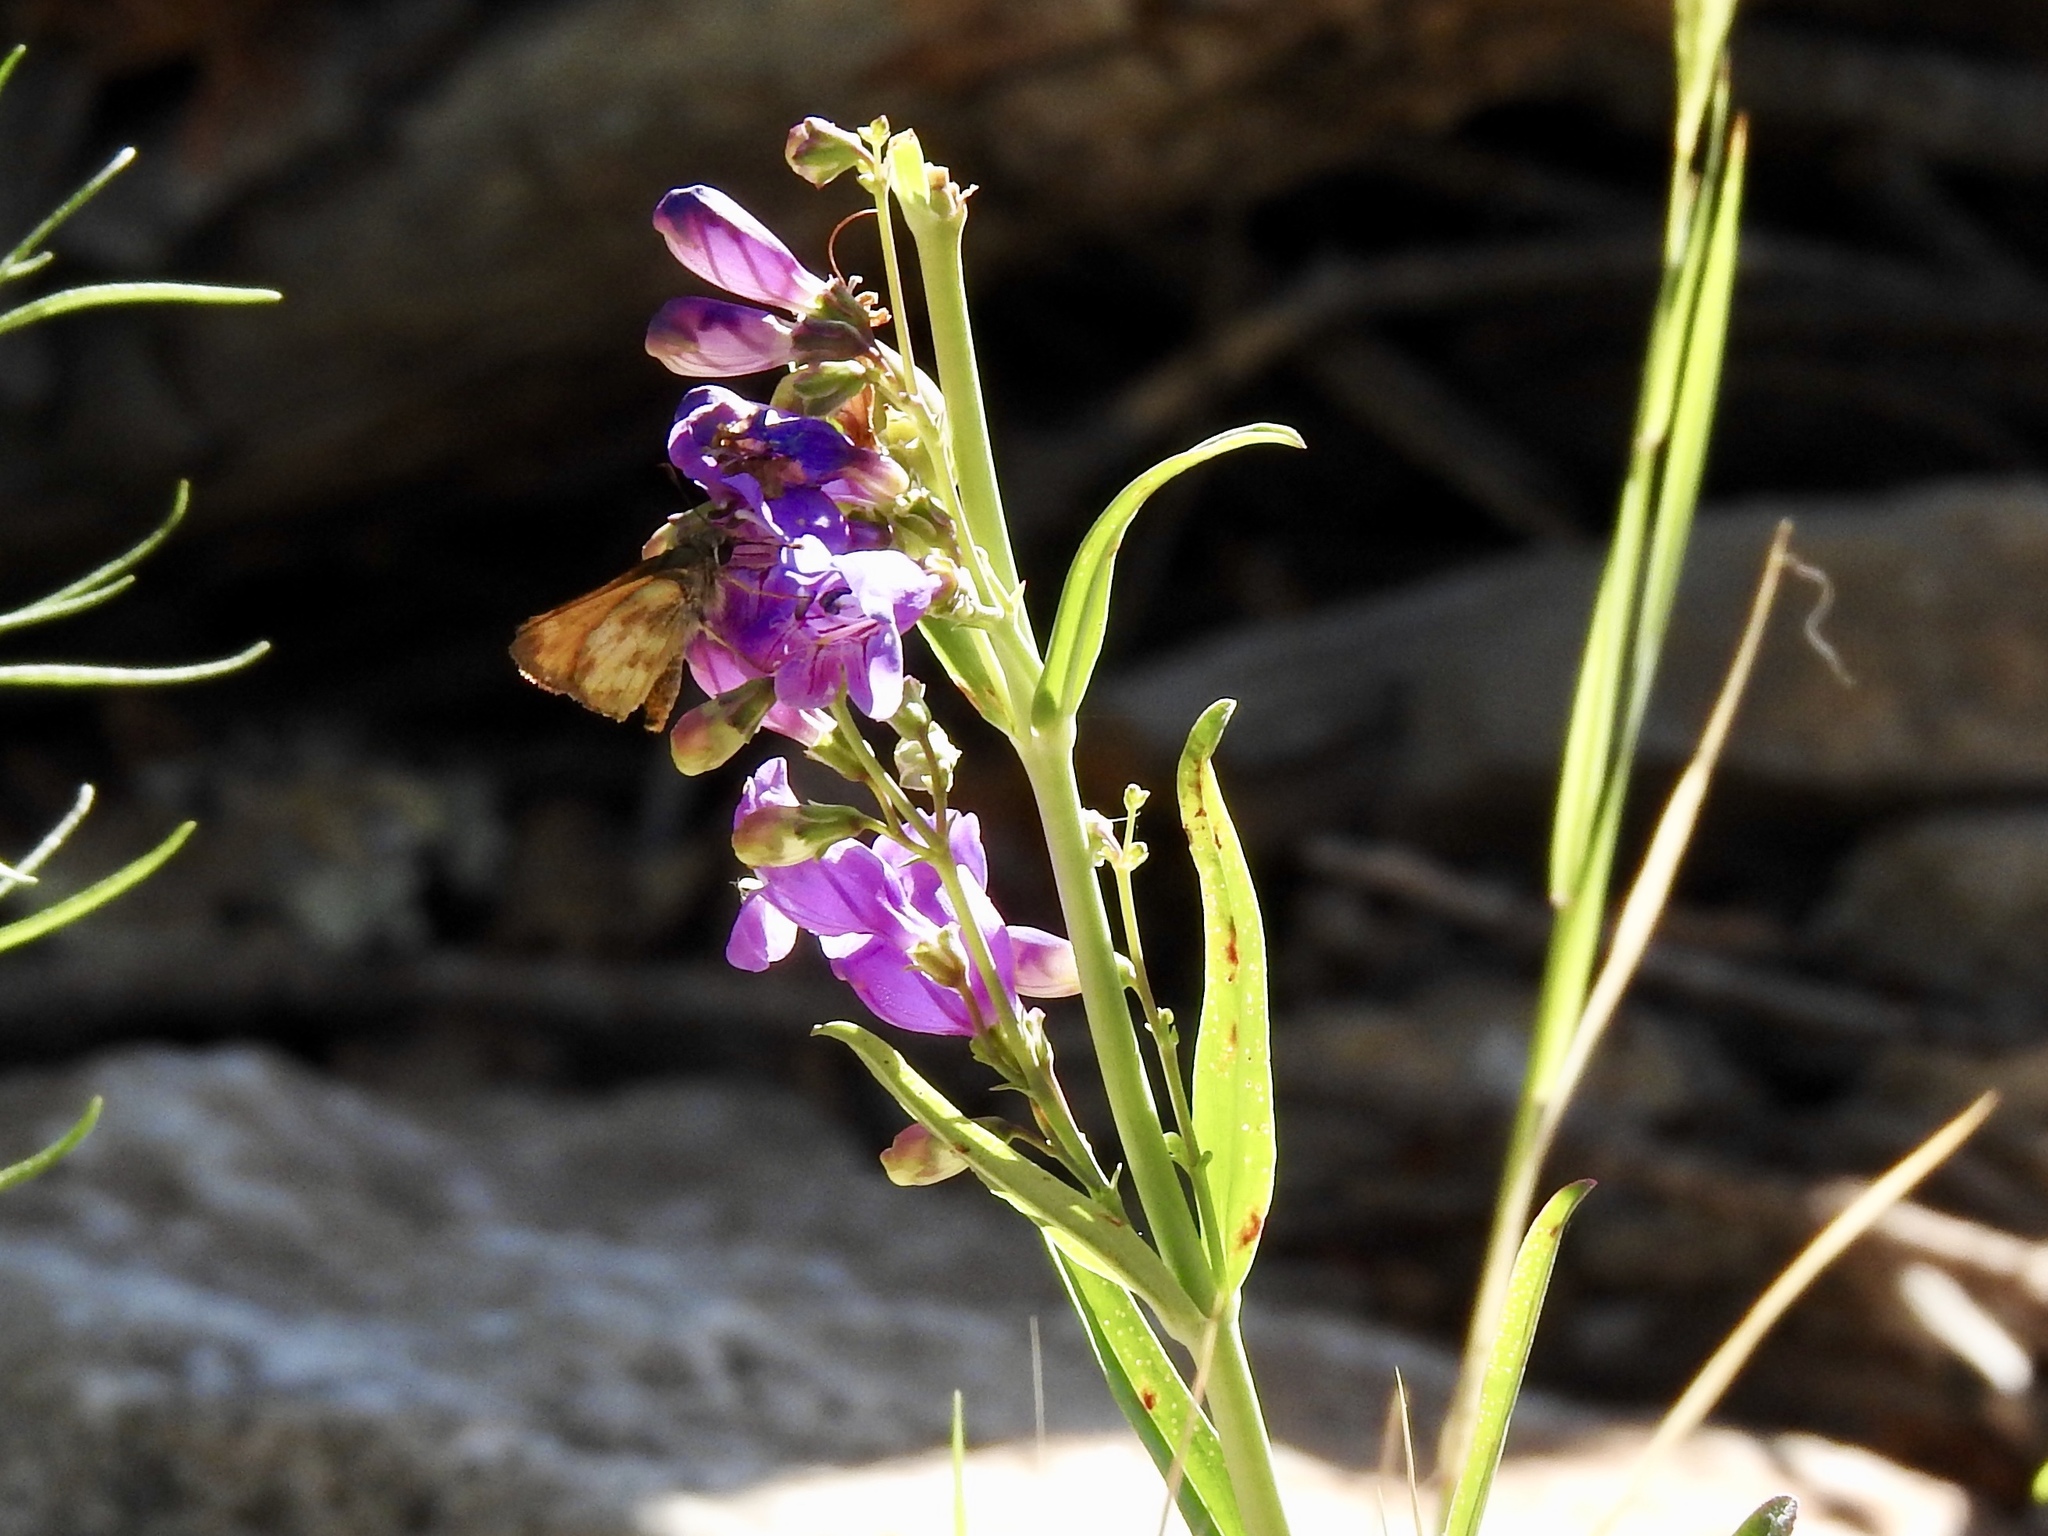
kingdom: Plantae
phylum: Tracheophyta
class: Magnoliopsida
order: Lamiales
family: Plantaginaceae
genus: Penstemon
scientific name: Penstemon neomexicanus
